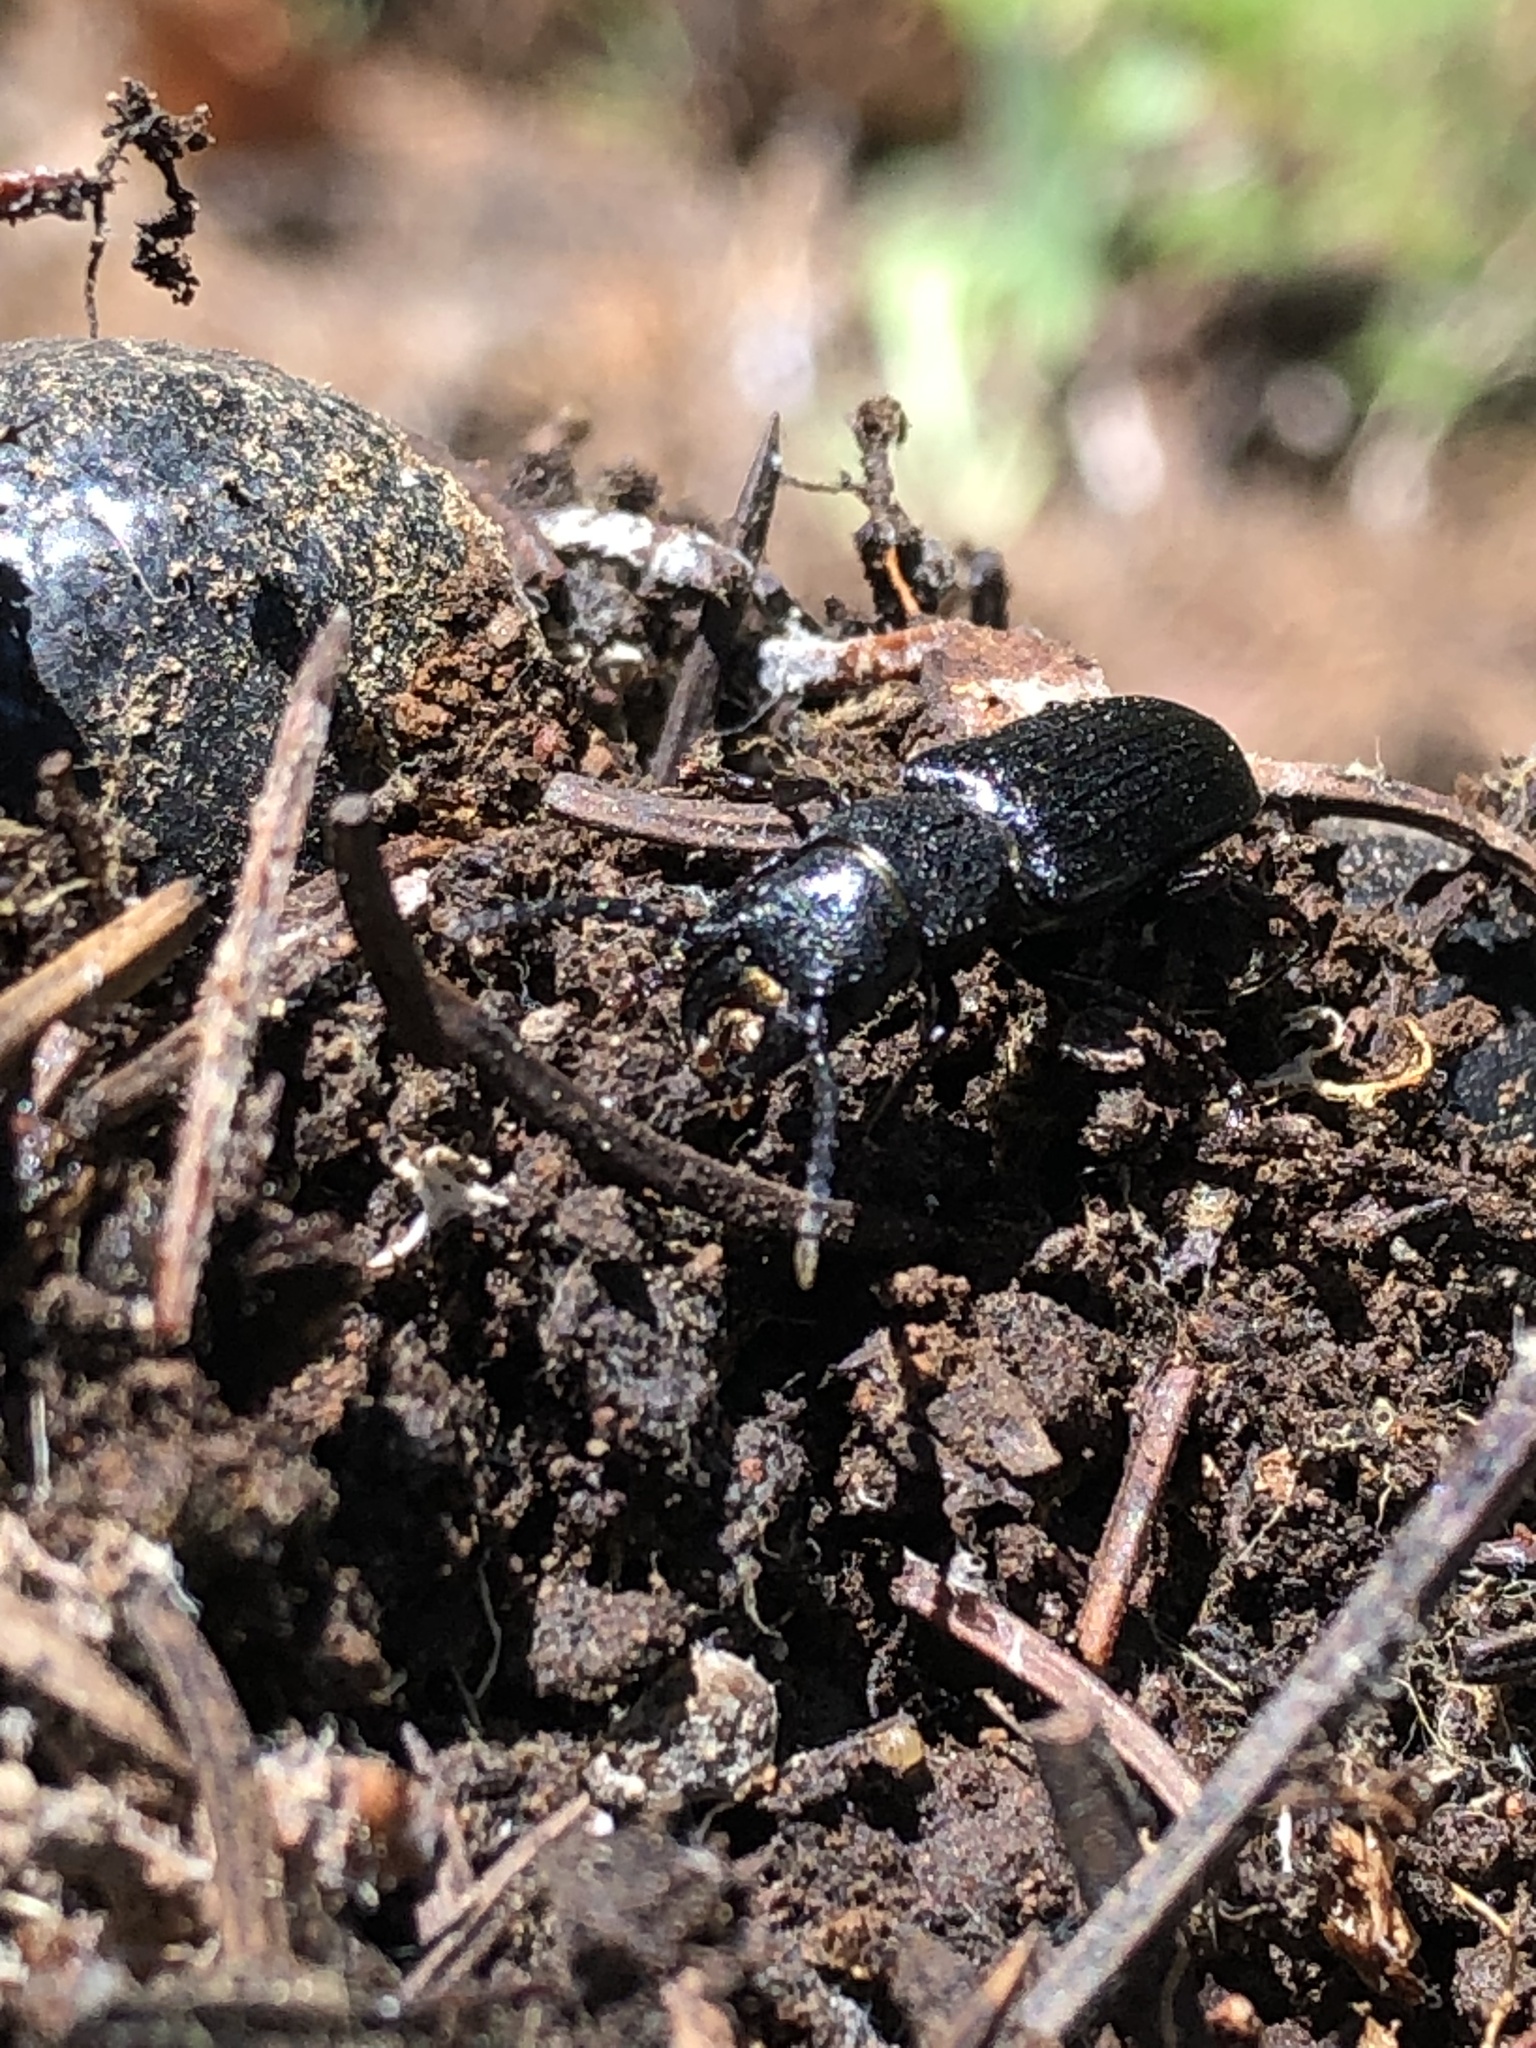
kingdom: Animalia
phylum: Arthropoda
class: Insecta
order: Coleoptera
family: Cerambycidae
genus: Neospondylis
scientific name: Neospondylis upiformis
